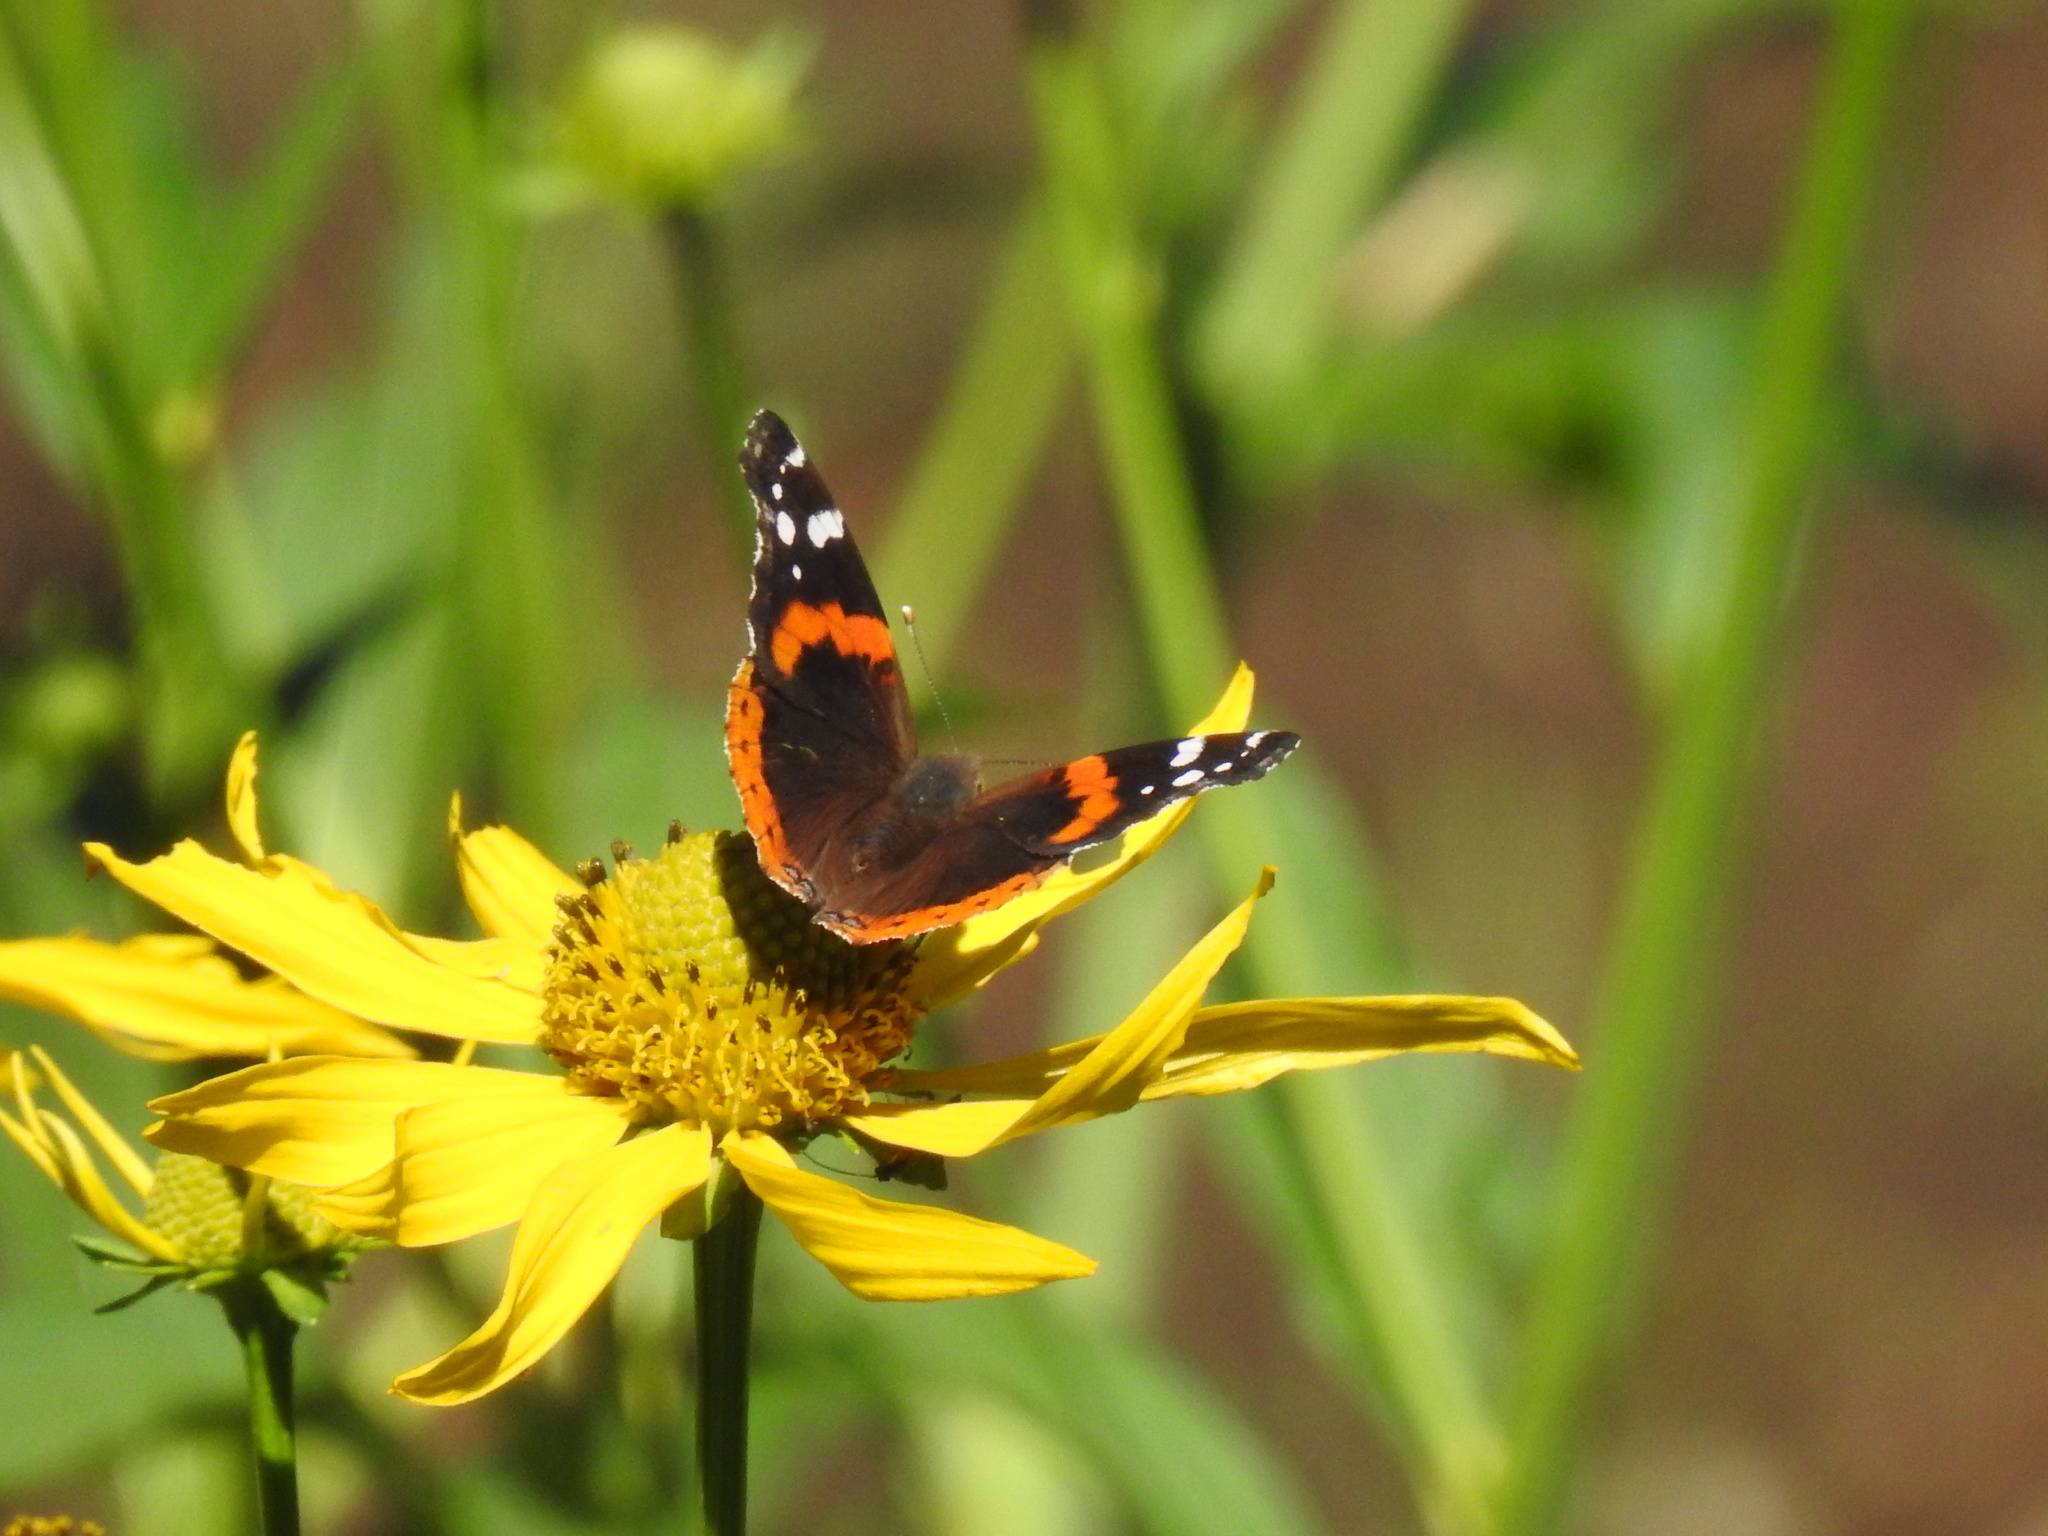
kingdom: Animalia
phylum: Arthropoda
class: Insecta
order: Lepidoptera
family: Nymphalidae
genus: Vanessa
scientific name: Vanessa atalanta
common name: Red admiral
